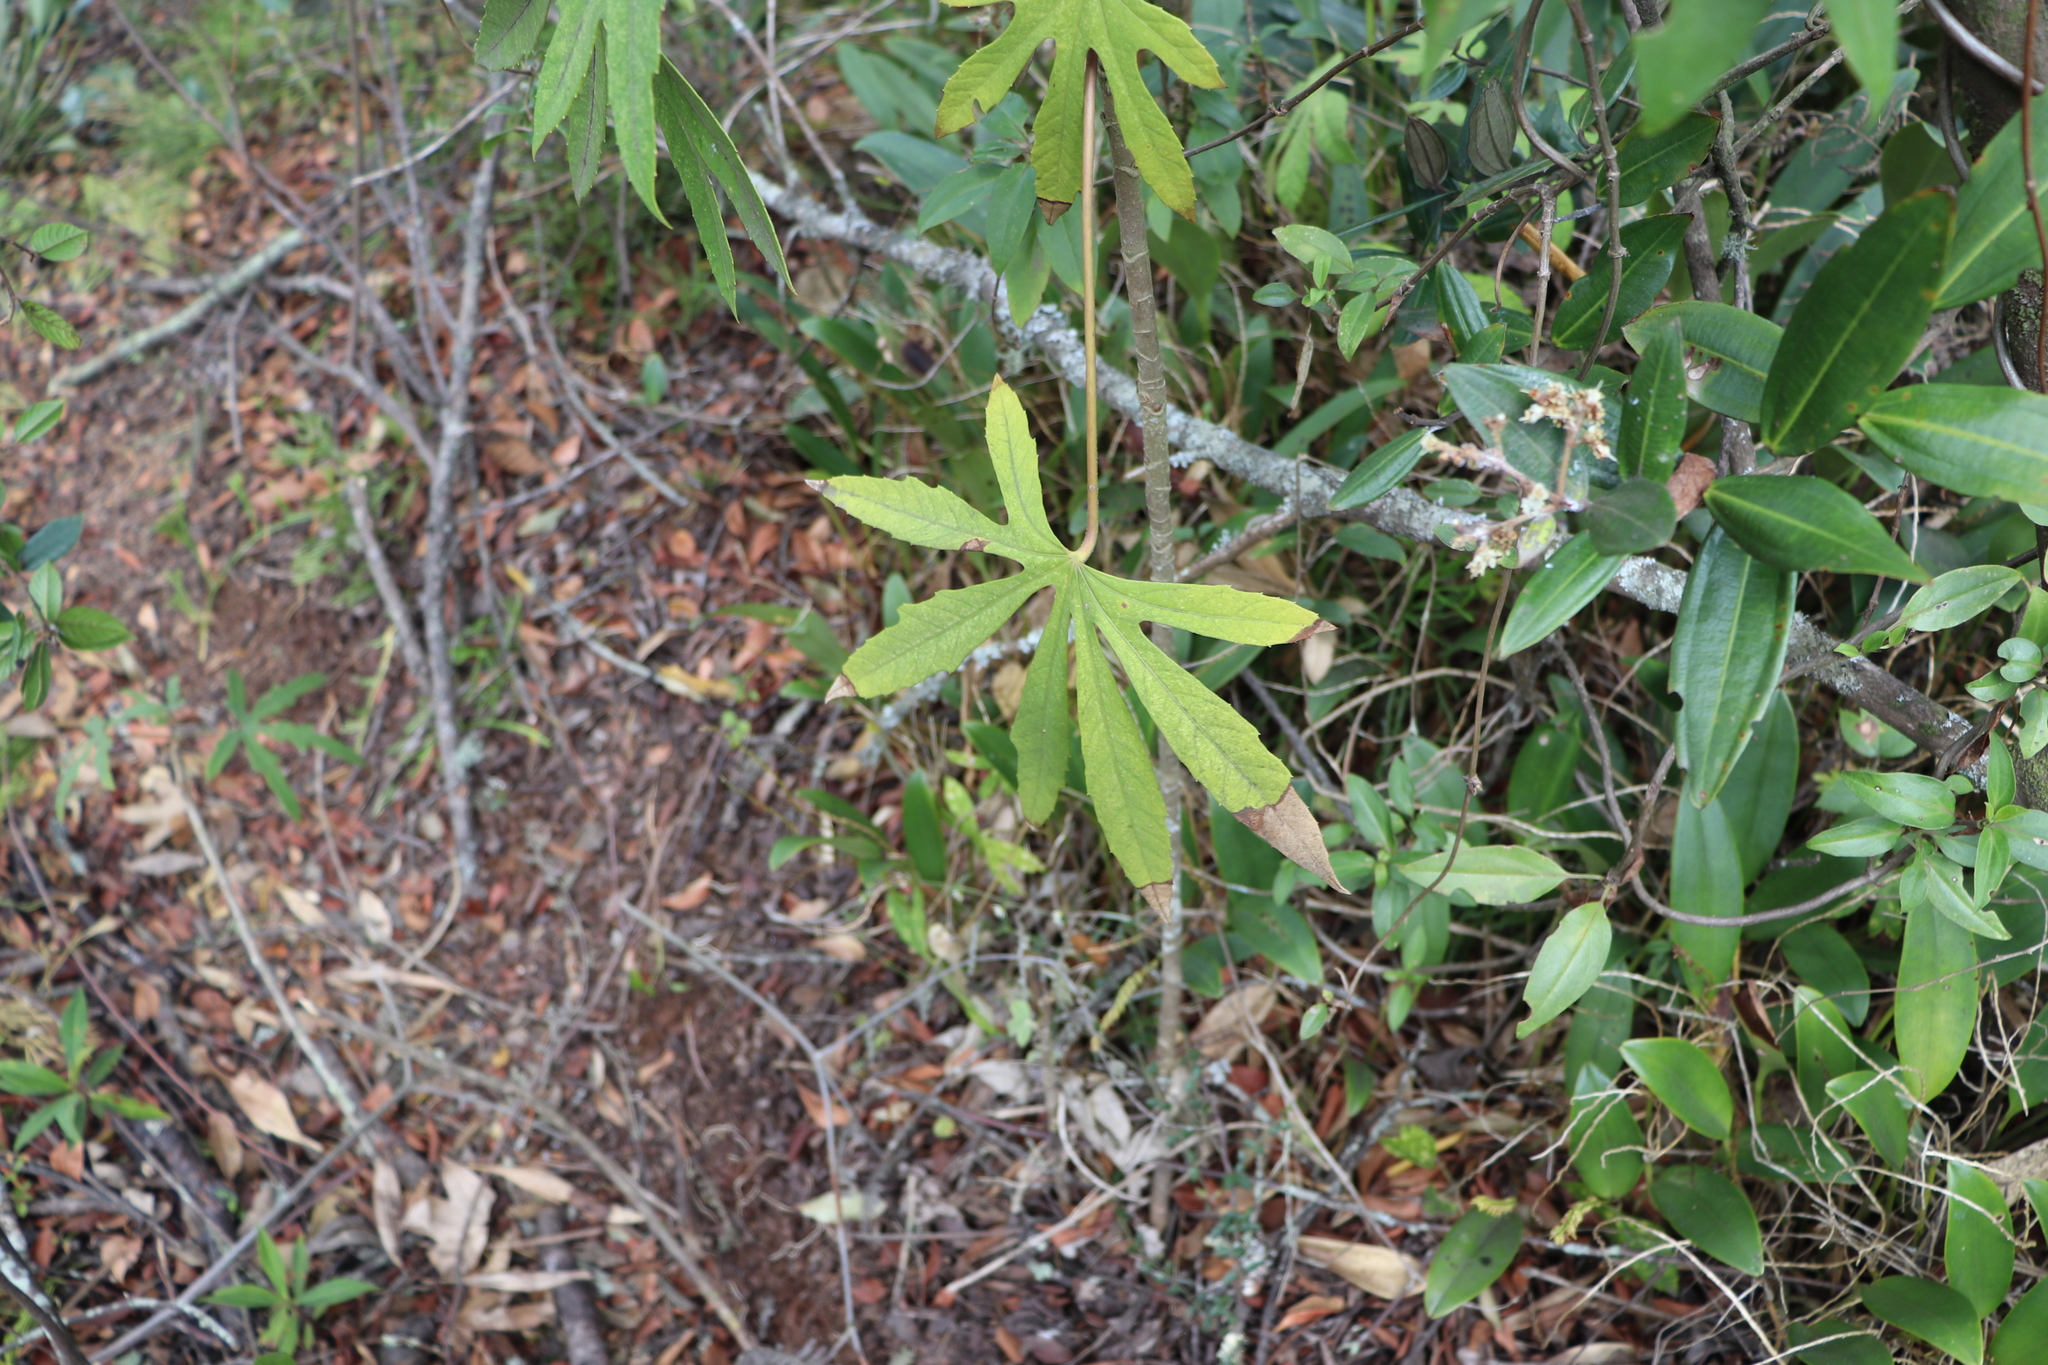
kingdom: Plantae
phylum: Tracheophyta
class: Magnoliopsida
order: Apiales
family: Araliaceae
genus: Oreopanax
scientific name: Oreopanax incisus
